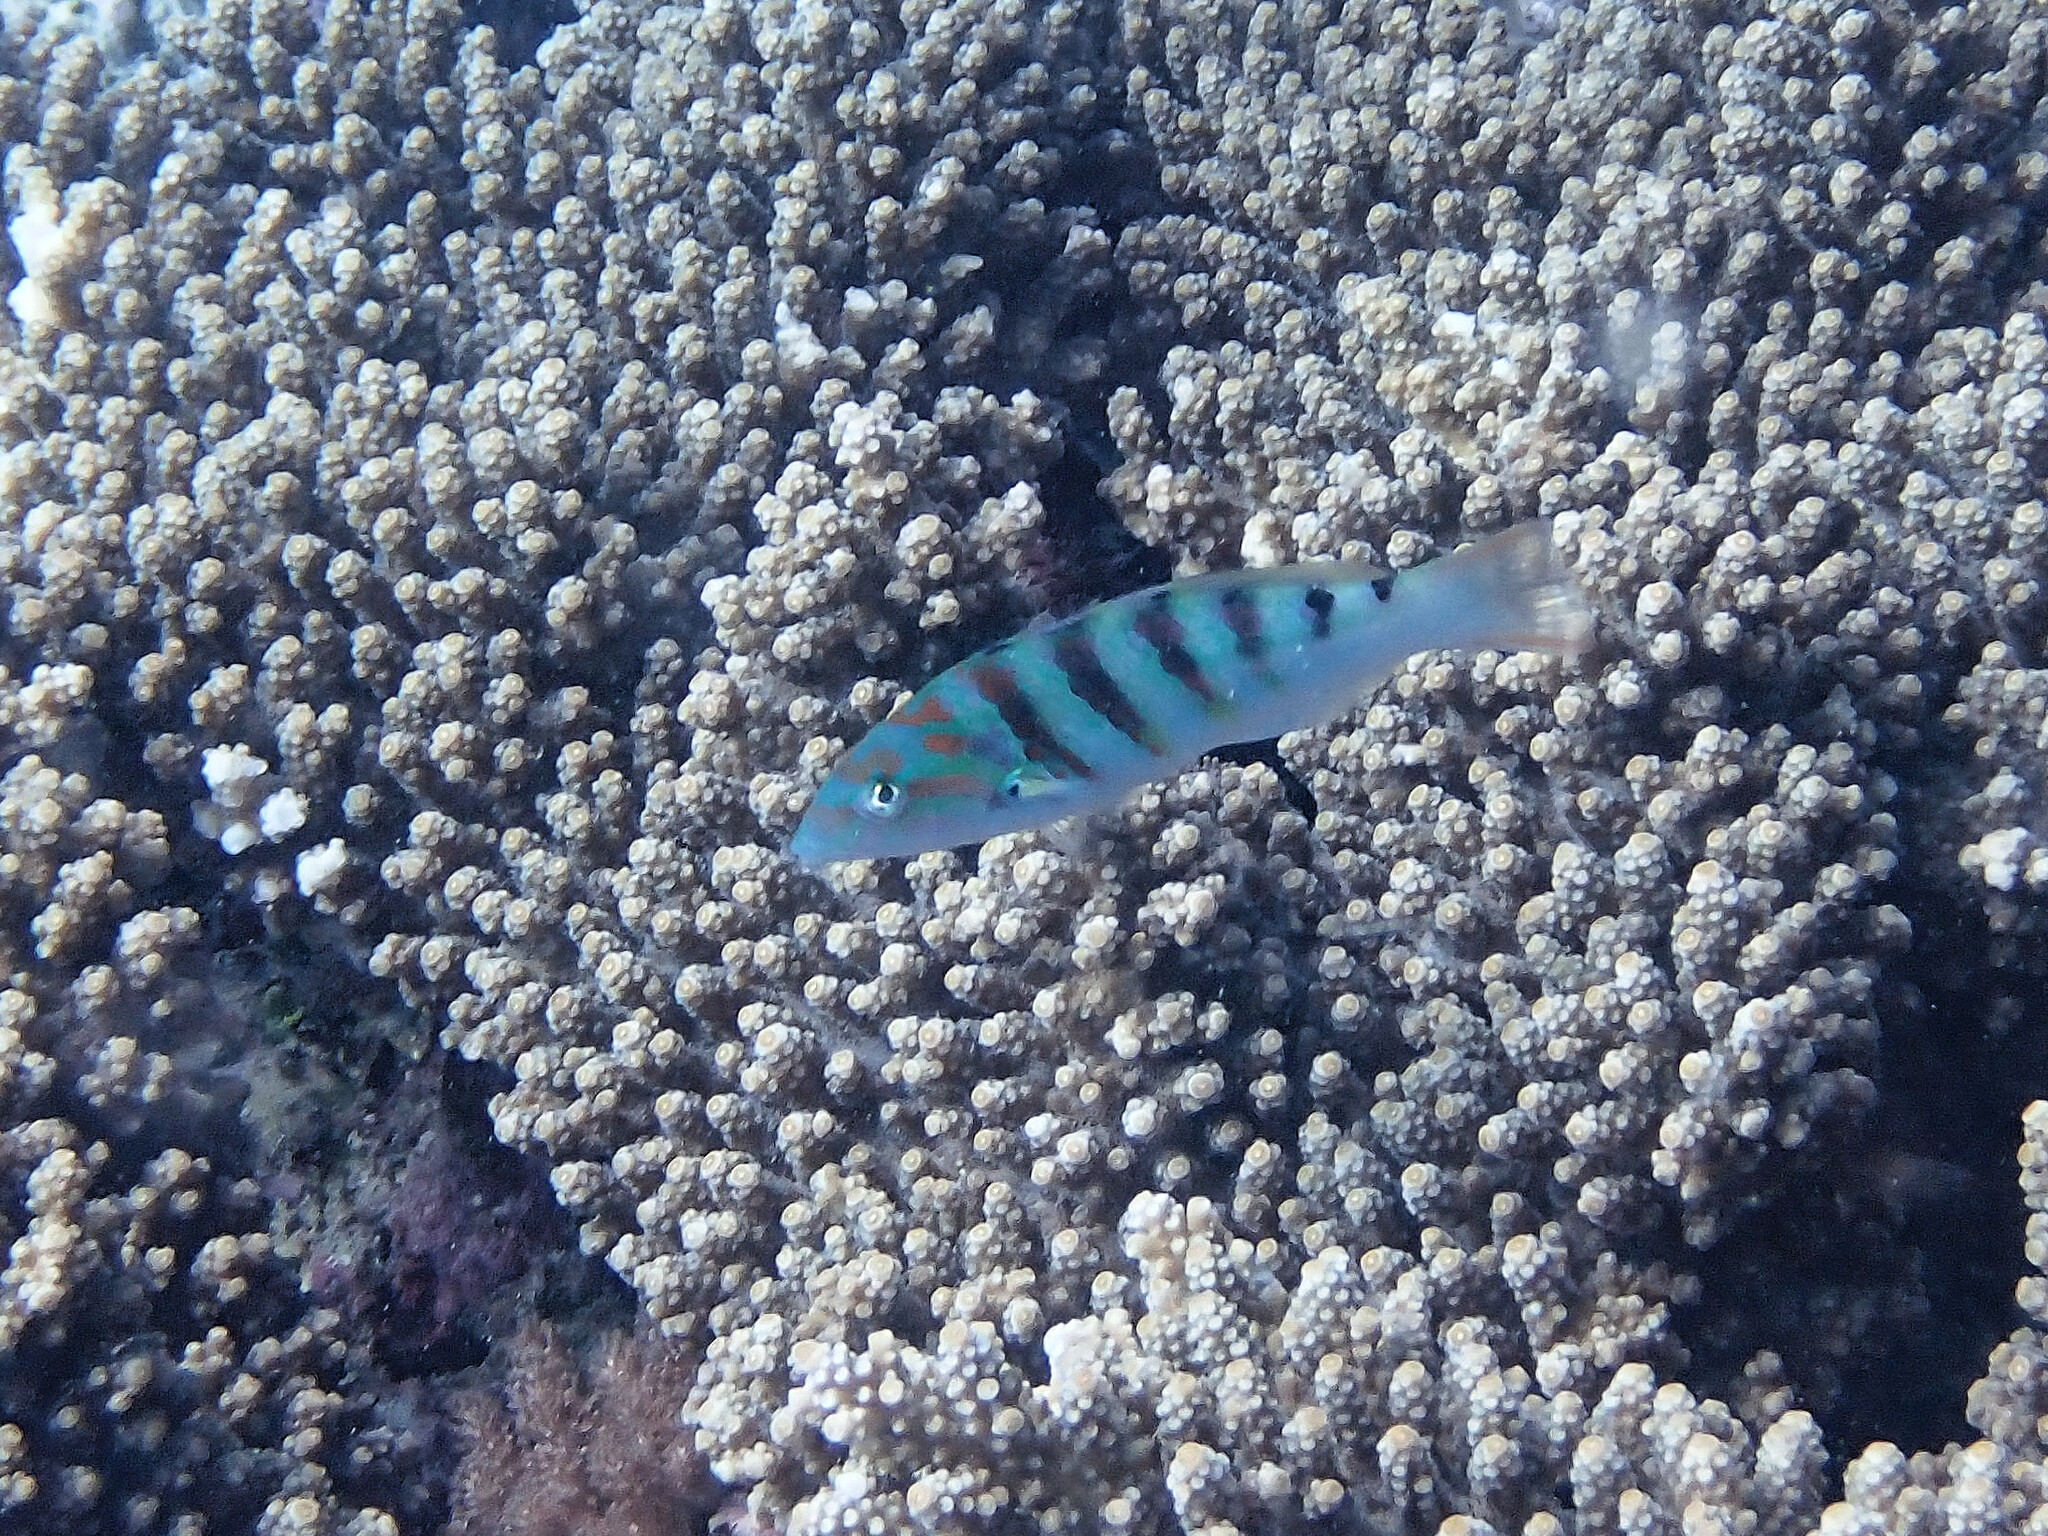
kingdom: Animalia
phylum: Chordata
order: Perciformes
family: Labridae
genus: Thalassoma
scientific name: Thalassoma hardwicke
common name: Sixbar wrasse
